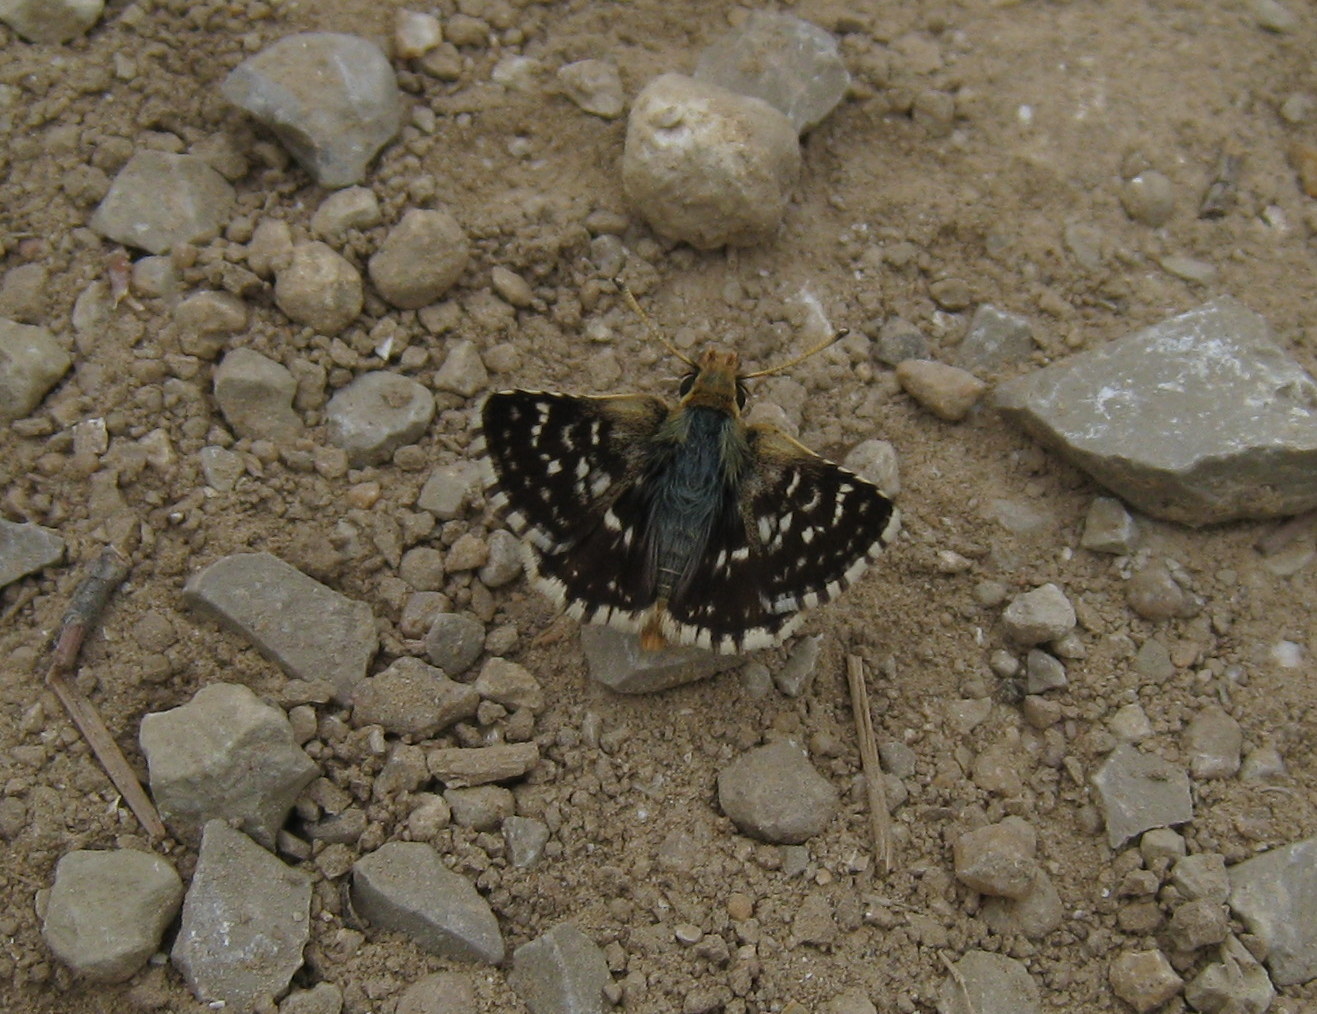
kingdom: Animalia
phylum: Arthropoda
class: Insecta
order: Lepidoptera
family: Hesperiidae
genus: Spialia
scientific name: Spialia sertorius
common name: Red underwing skipper
